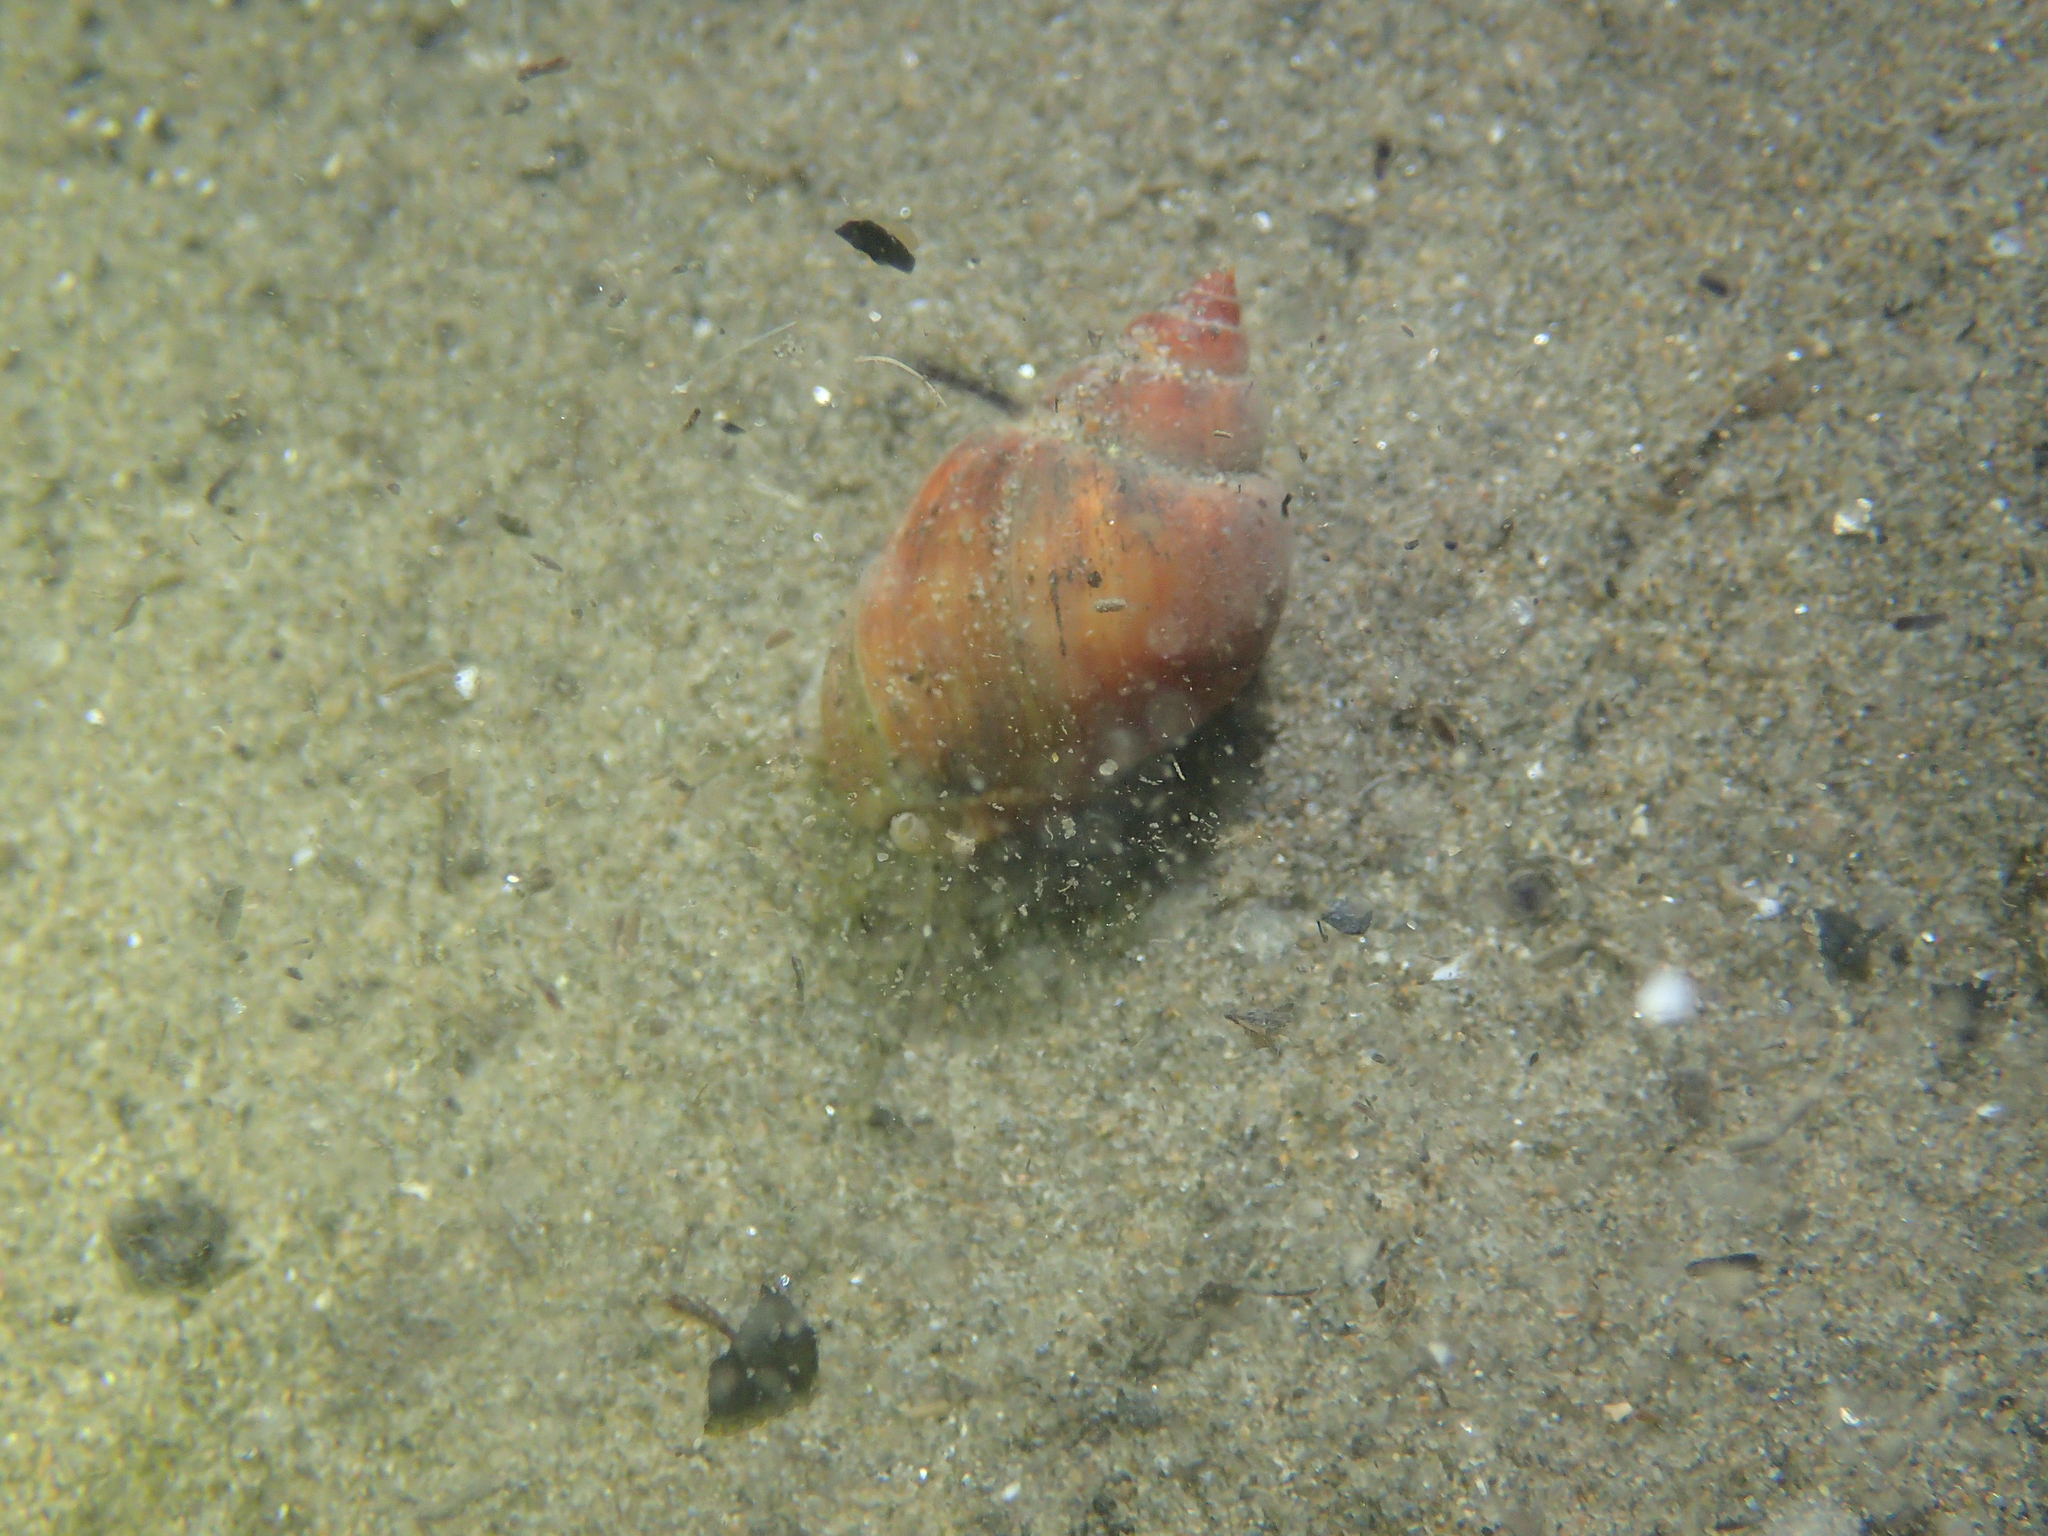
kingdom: Animalia
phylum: Mollusca
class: Gastropoda
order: Neogastropoda
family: Nassariidae
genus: Tritia
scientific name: Tritia mutabilis
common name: Mutable nassa
